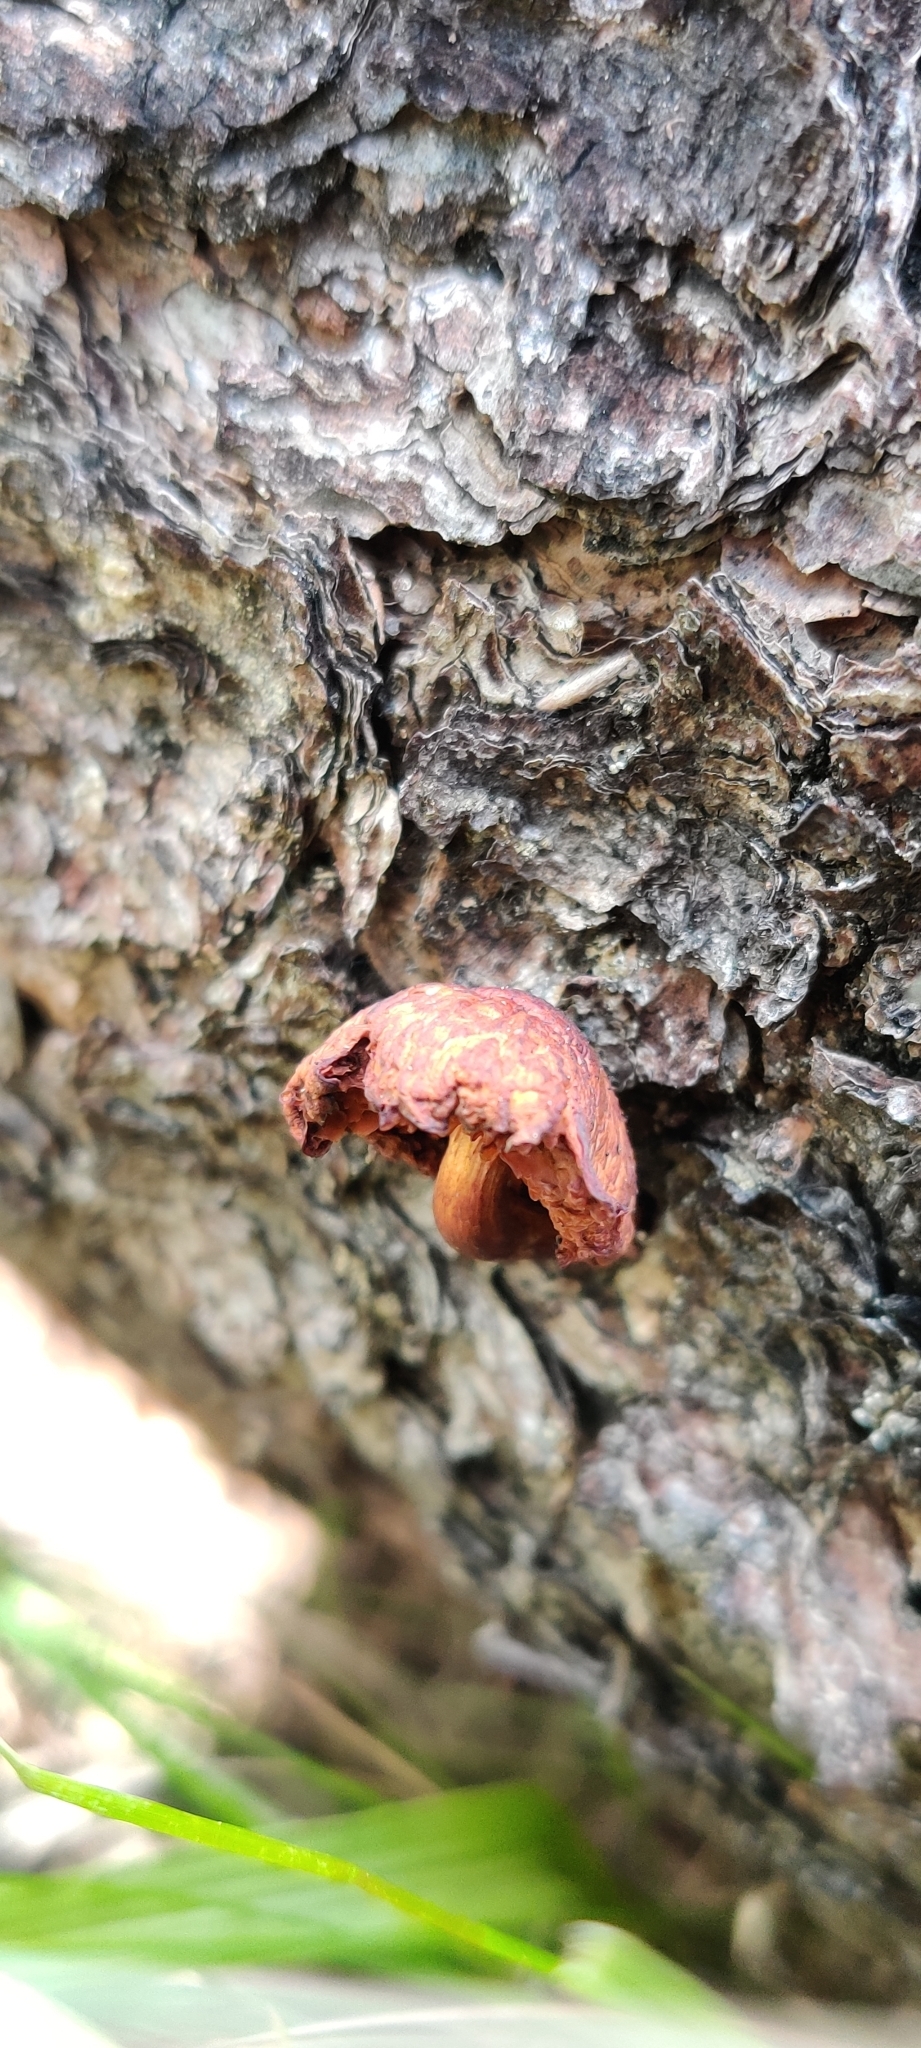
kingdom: Fungi
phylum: Basidiomycota
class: Agaricomycetes
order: Agaricales
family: Hymenogastraceae
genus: Gymnopilus
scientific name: Gymnopilus luteofolius
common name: Yellow-gilled gymnopilus
